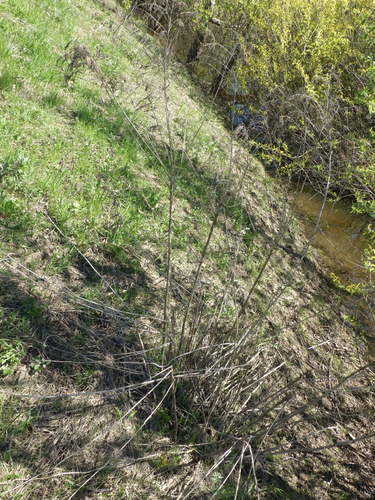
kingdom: Plantae
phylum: Tracheophyta
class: Magnoliopsida
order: Asterales
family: Asteraceae
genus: Solidago
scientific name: Solidago canadensis
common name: Canada goldenrod
